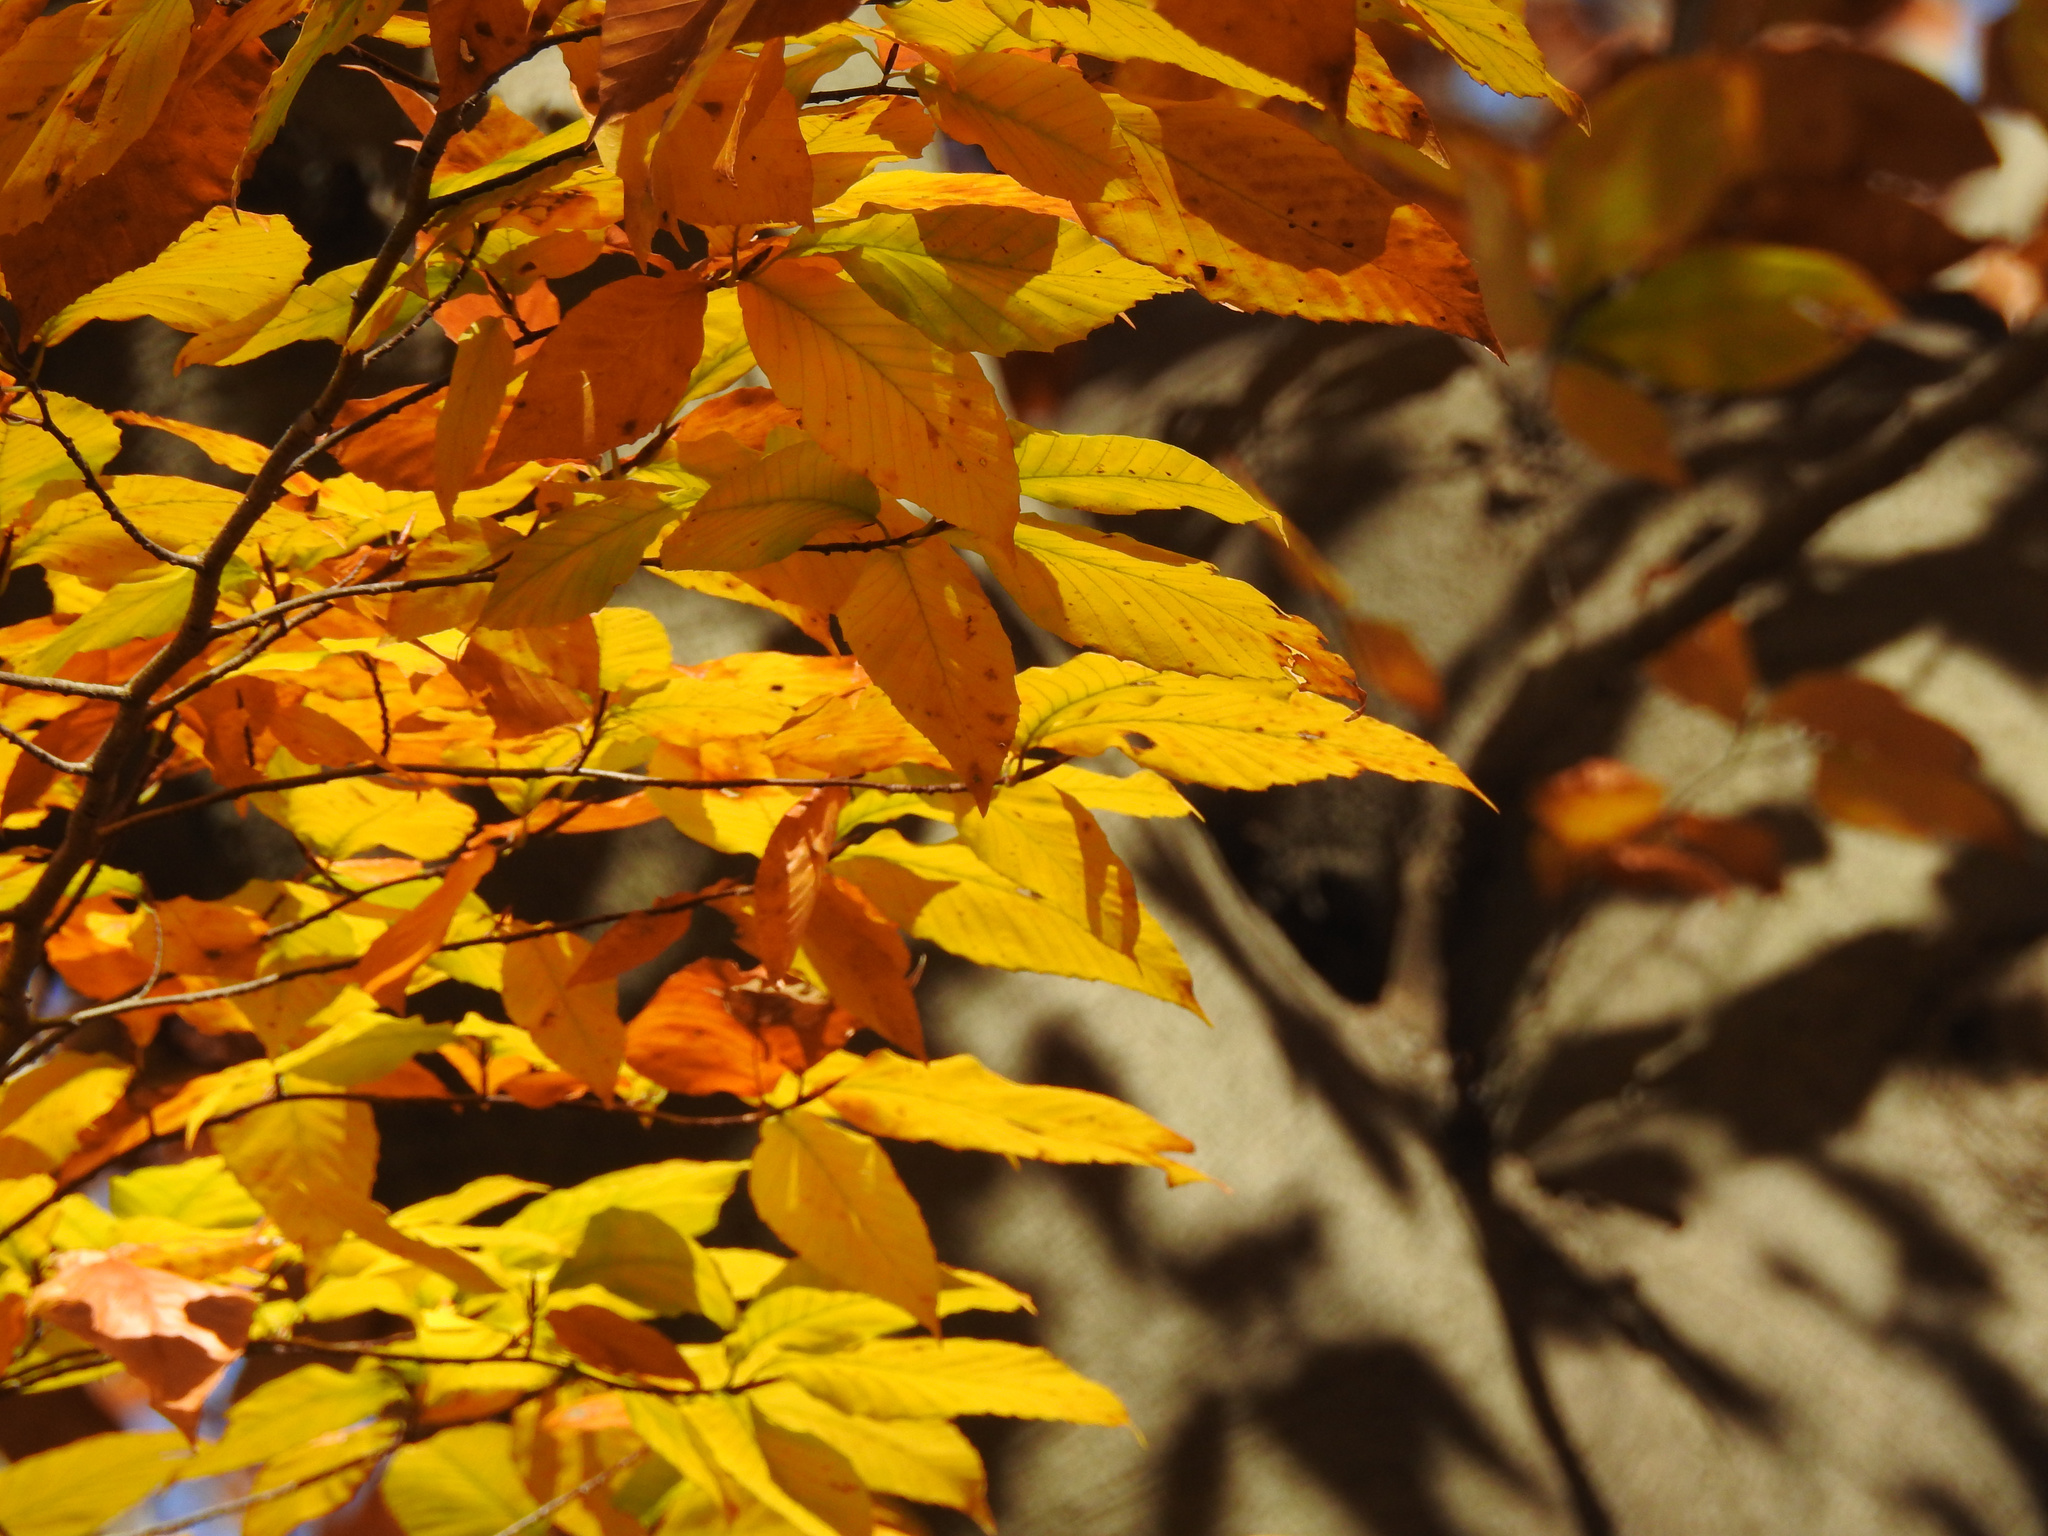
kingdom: Plantae
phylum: Tracheophyta
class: Magnoliopsida
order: Fagales
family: Fagaceae
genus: Fagus
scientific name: Fagus grandifolia
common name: American beech
